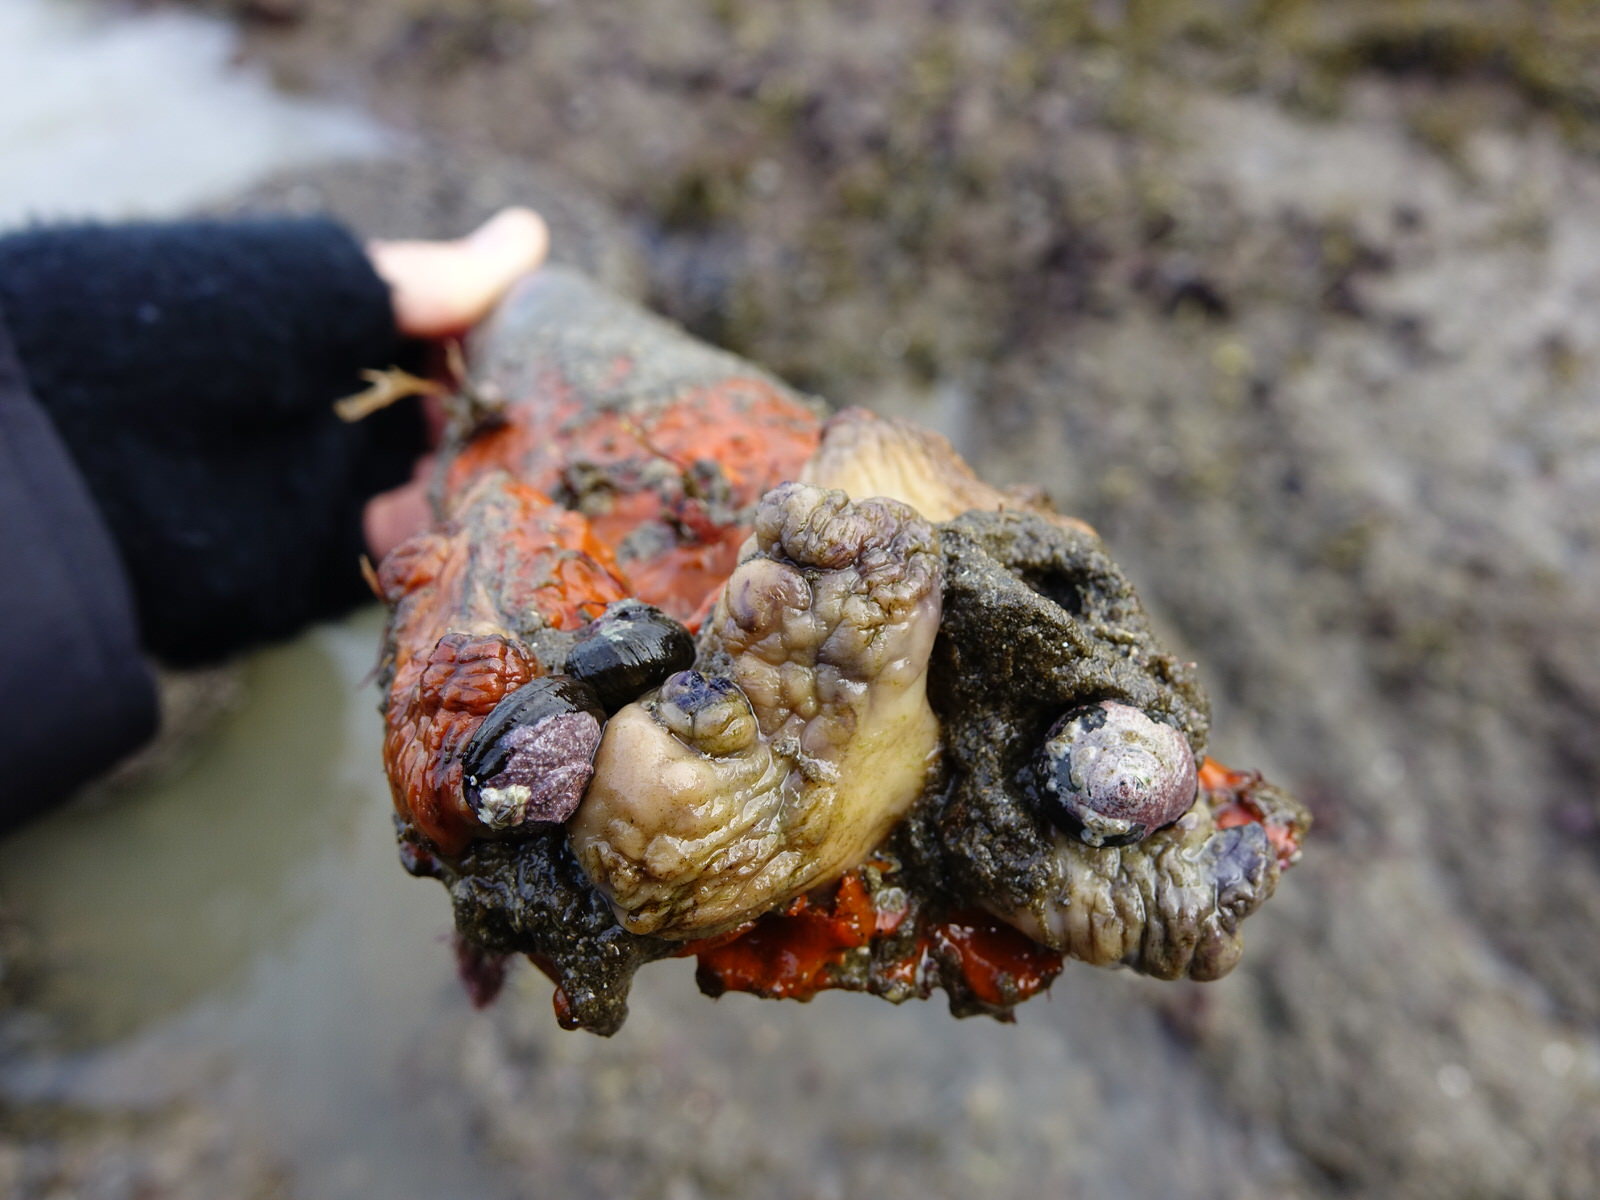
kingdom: Animalia
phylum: Chordata
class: Ascidiacea
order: Stolidobranchia
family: Styelidae
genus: Cnemidocarpa
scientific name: Cnemidocarpa bicornuta
